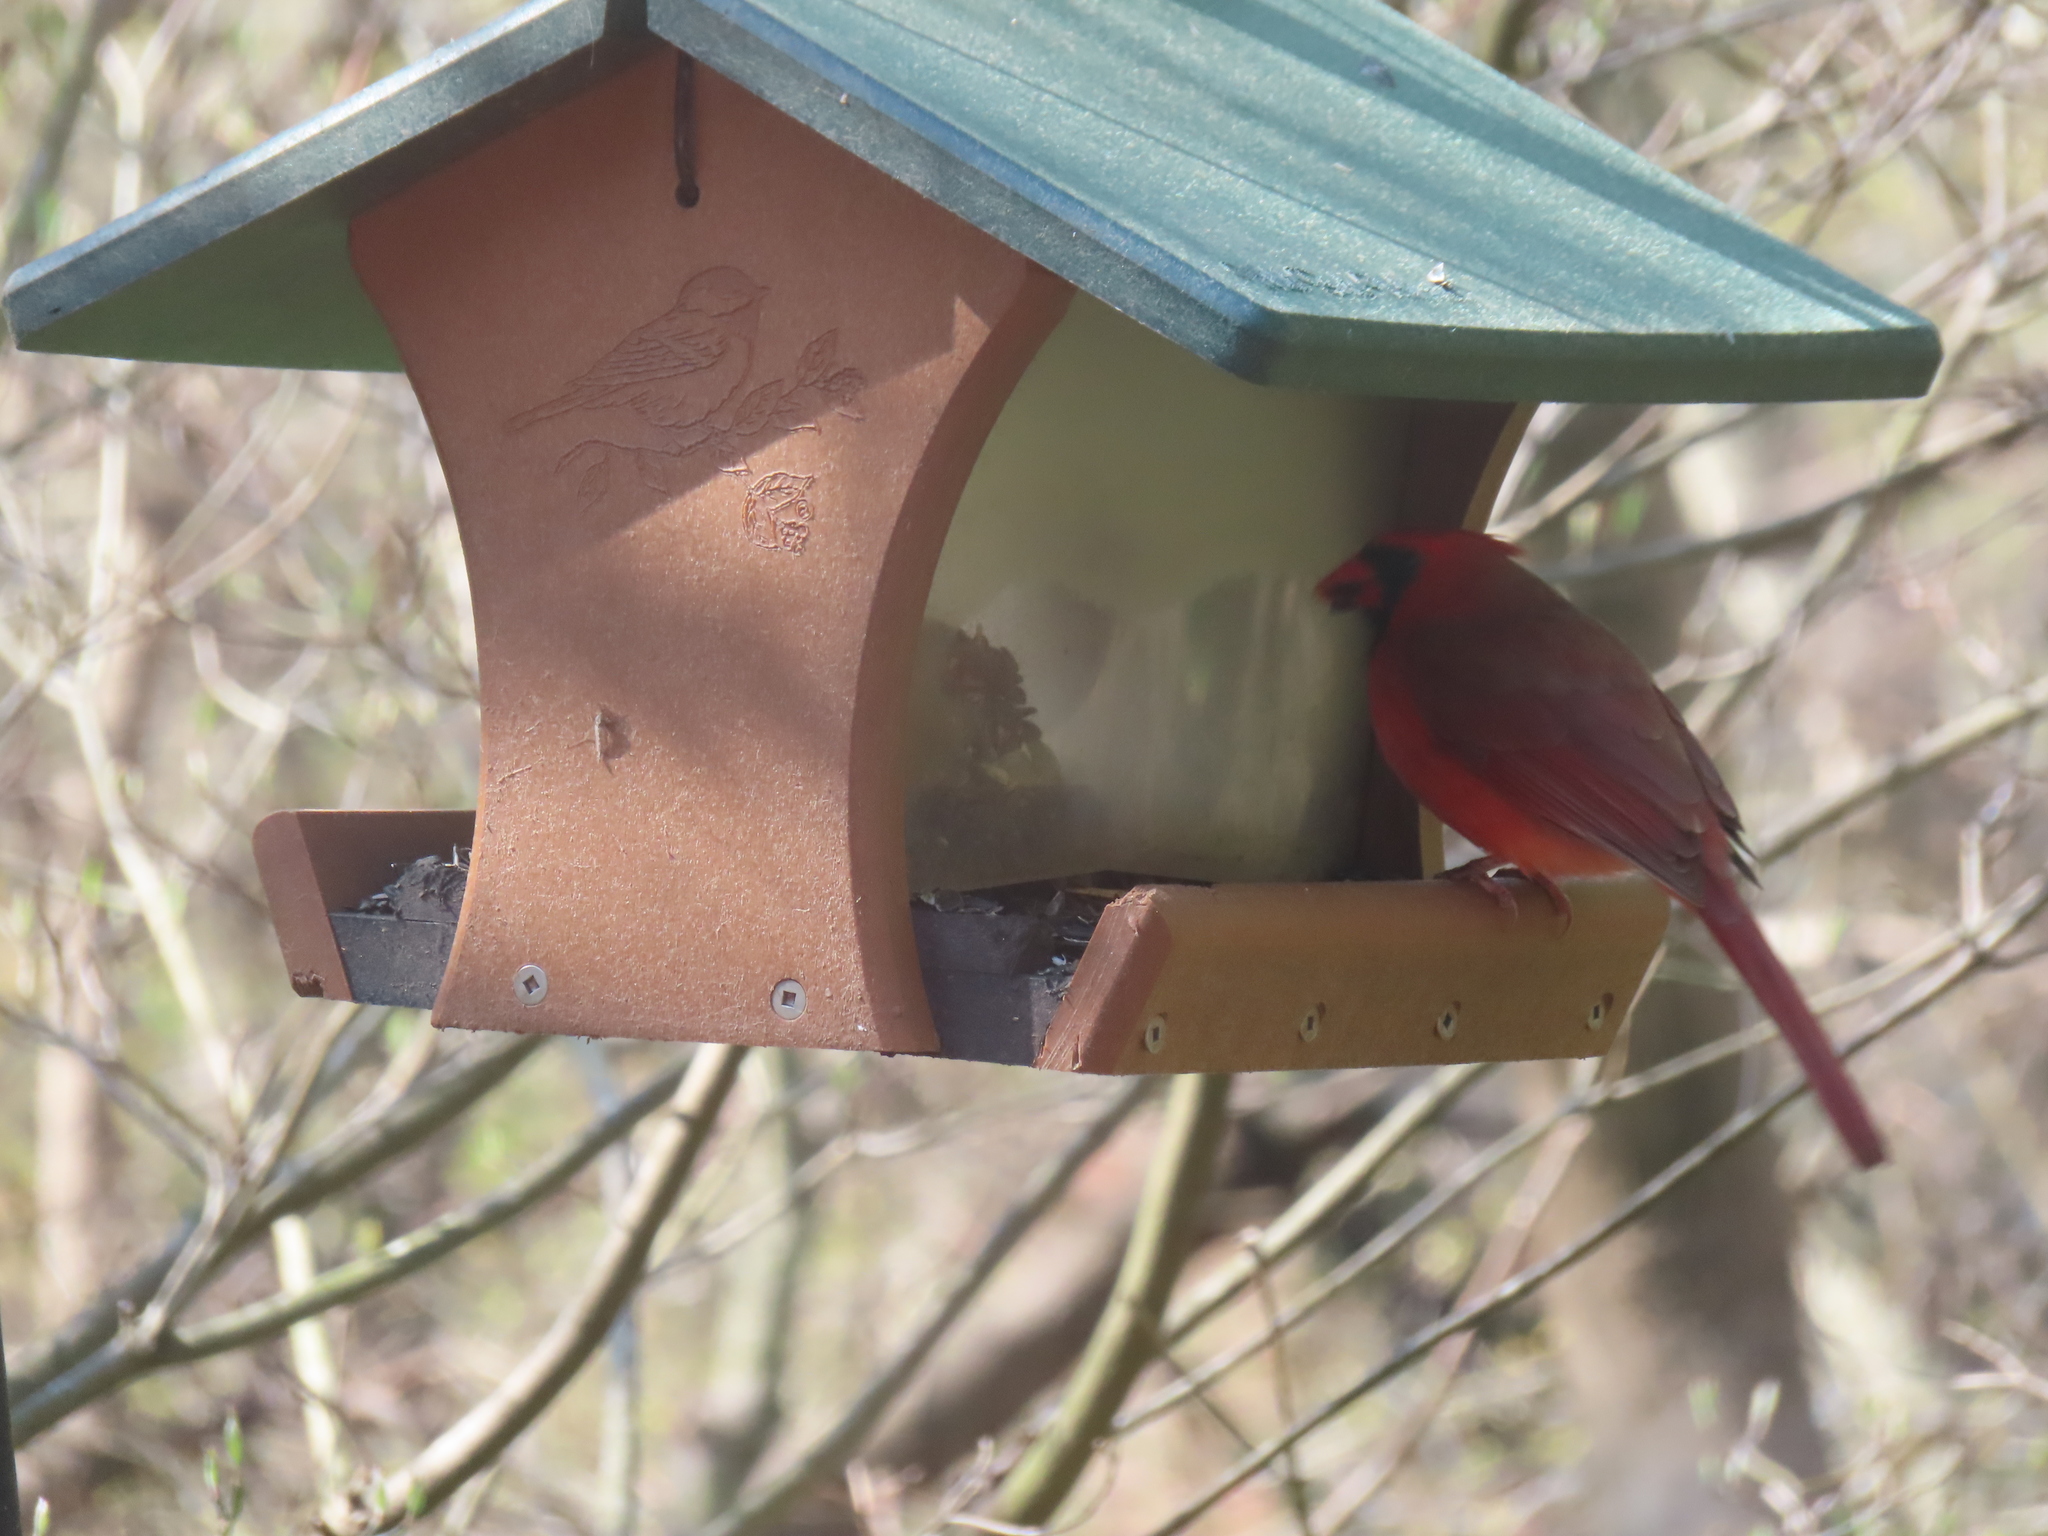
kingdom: Animalia
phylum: Chordata
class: Aves
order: Passeriformes
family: Cardinalidae
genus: Cardinalis
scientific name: Cardinalis cardinalis
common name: Northern cardinal
